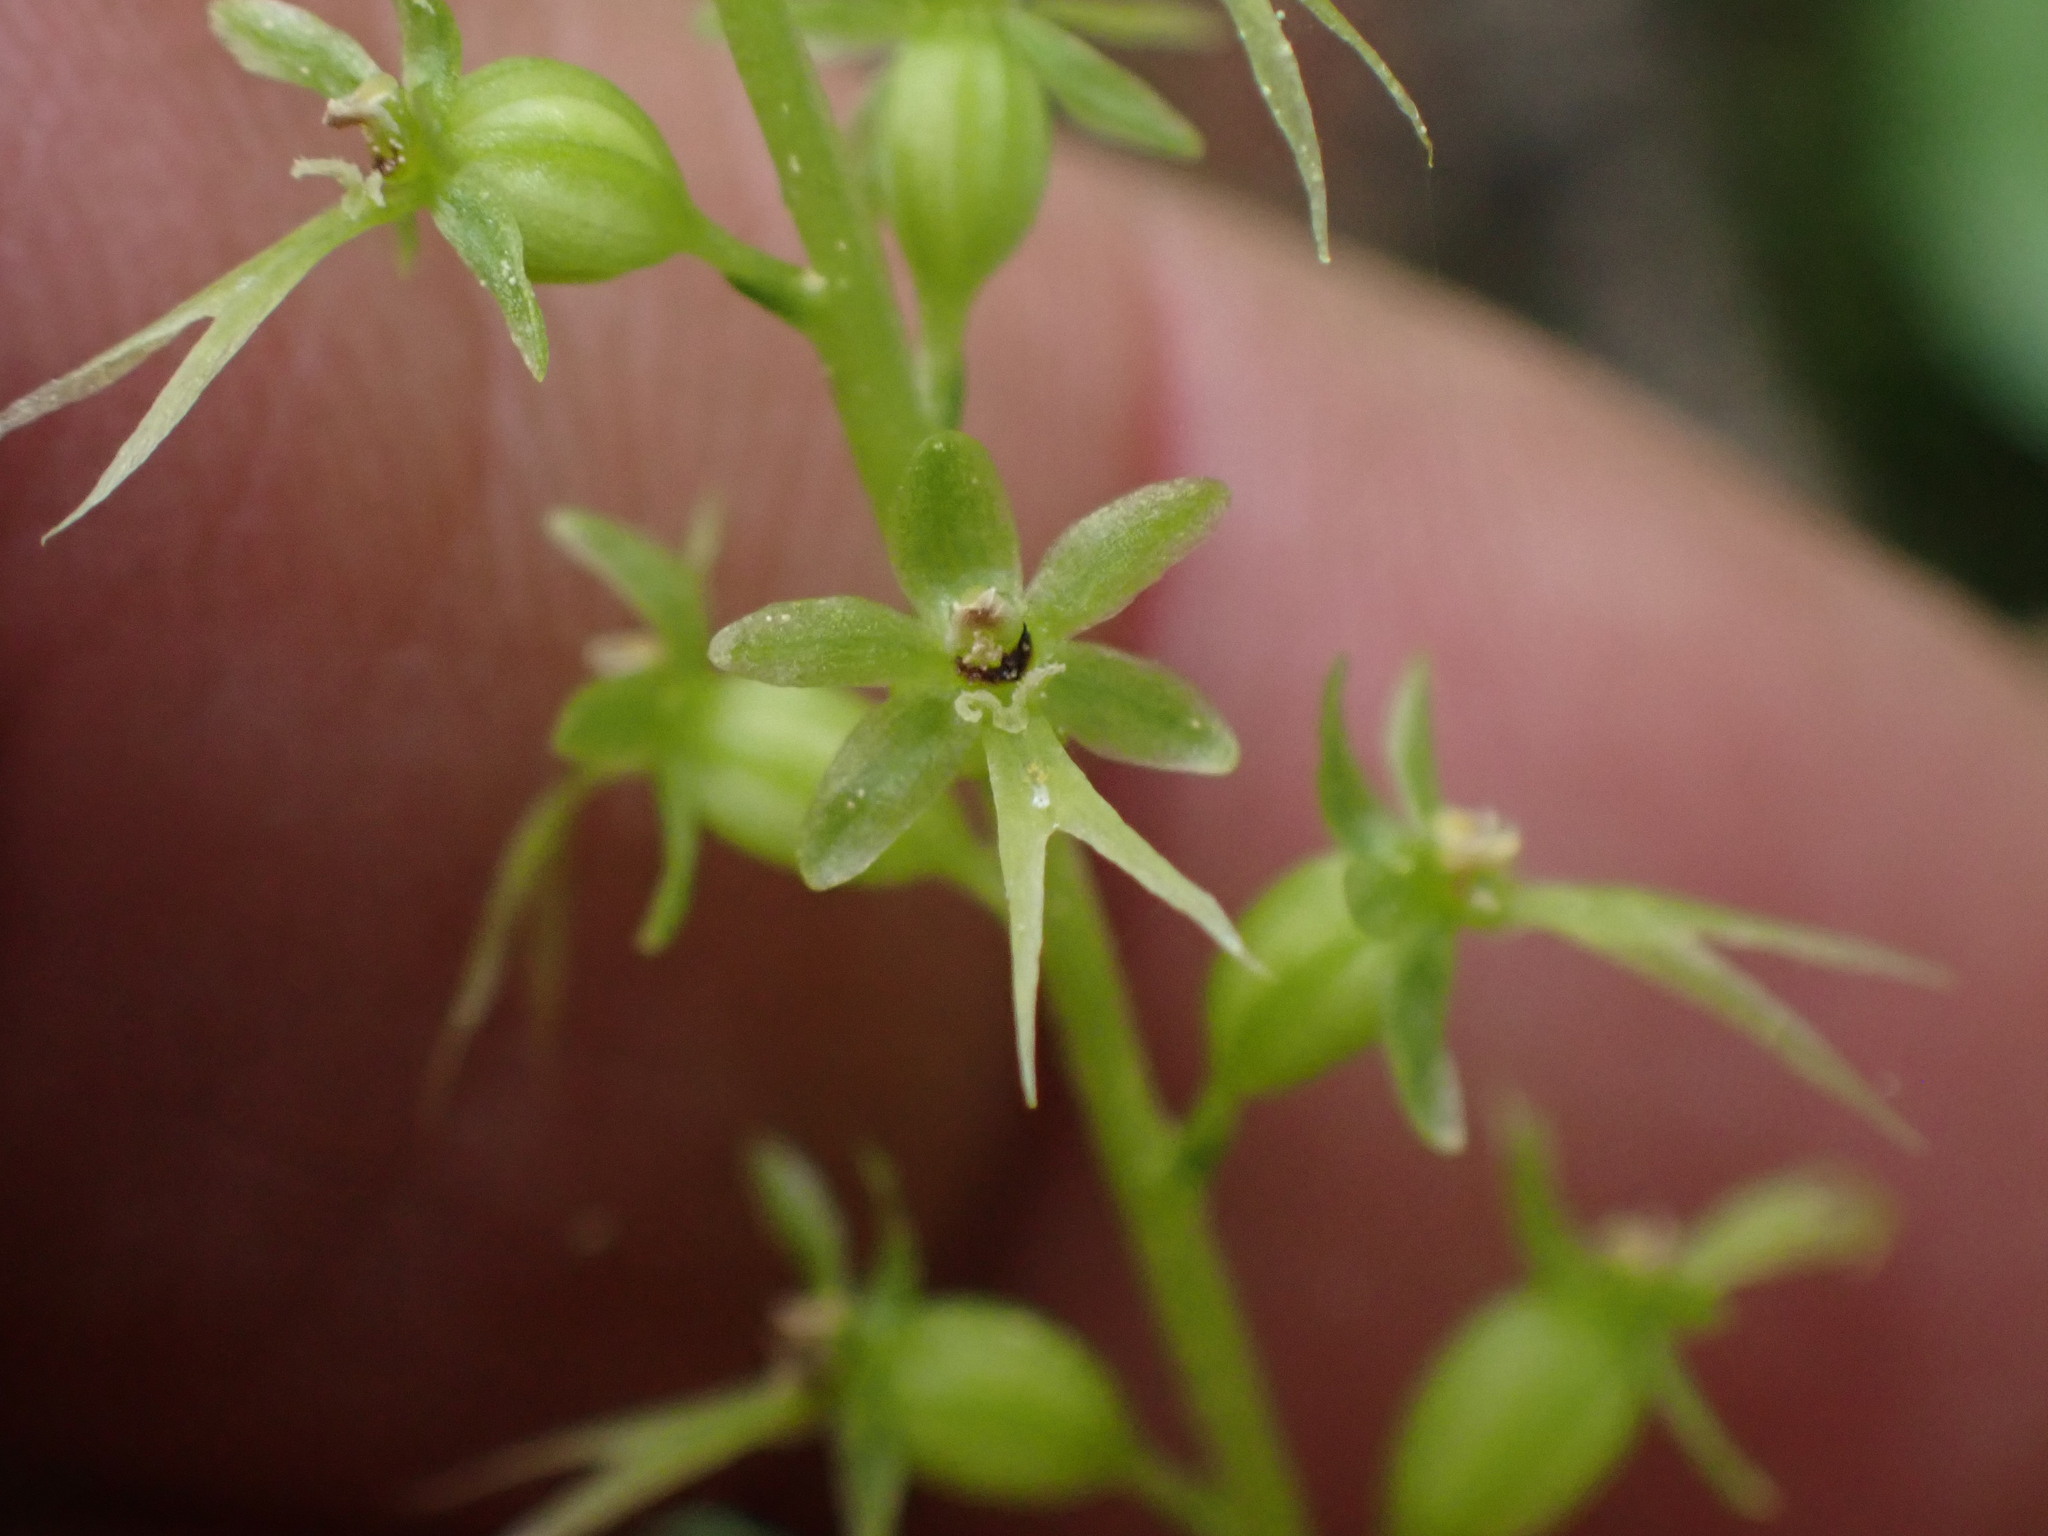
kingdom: Plantae
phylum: Tracheophyta
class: Liliopsida
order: Asparagales
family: Orchidaceae
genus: Neottia
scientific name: Neottia cordata
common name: Lesser twayblade
